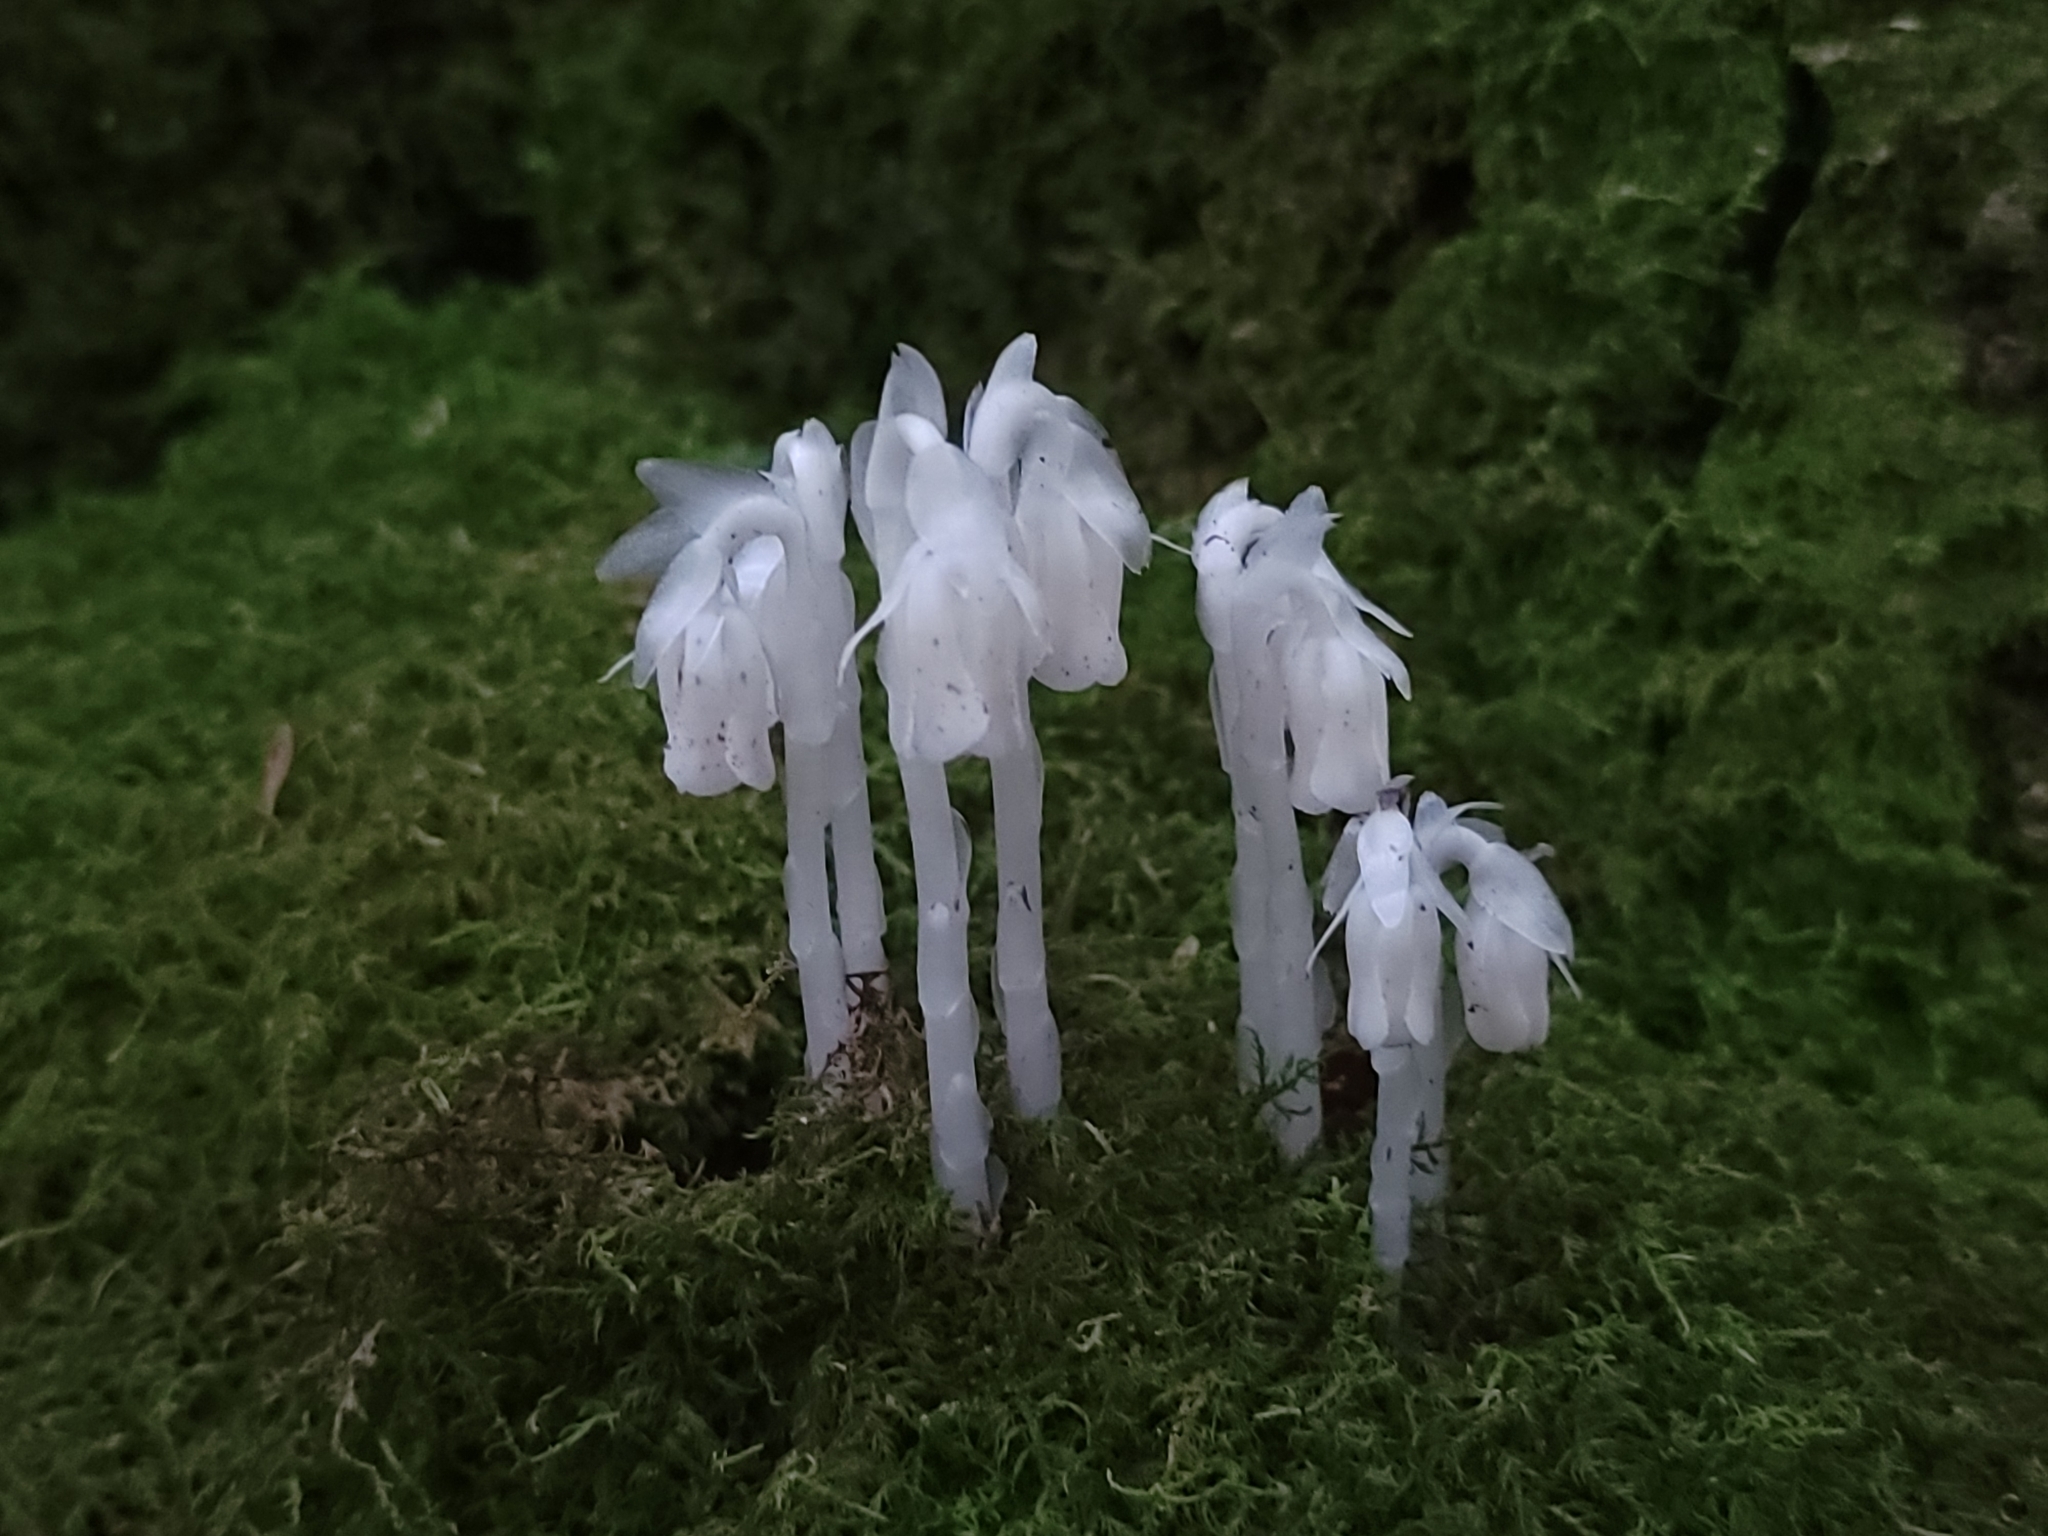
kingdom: Plantae
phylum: Tracheophyta
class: Magnoliopsida
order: Ericales
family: Ericaceae
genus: Monotropa
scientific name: Monotropa uniflora
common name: Convulsion root
